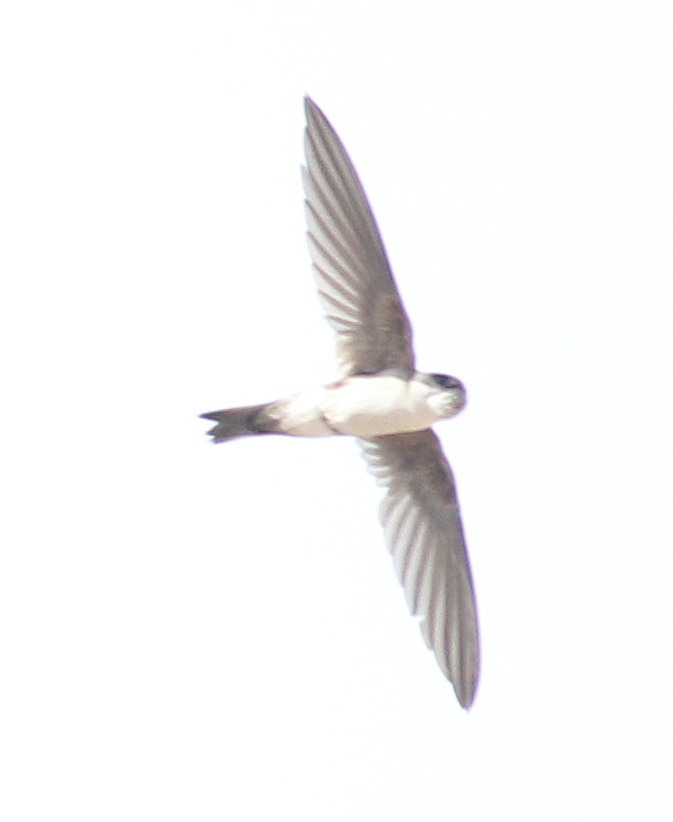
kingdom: Animalia
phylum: Chordata
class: Aves
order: Apodiformes
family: Apodidae
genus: Aeronautes
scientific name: Aeronautes andecolus
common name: Andean swift
